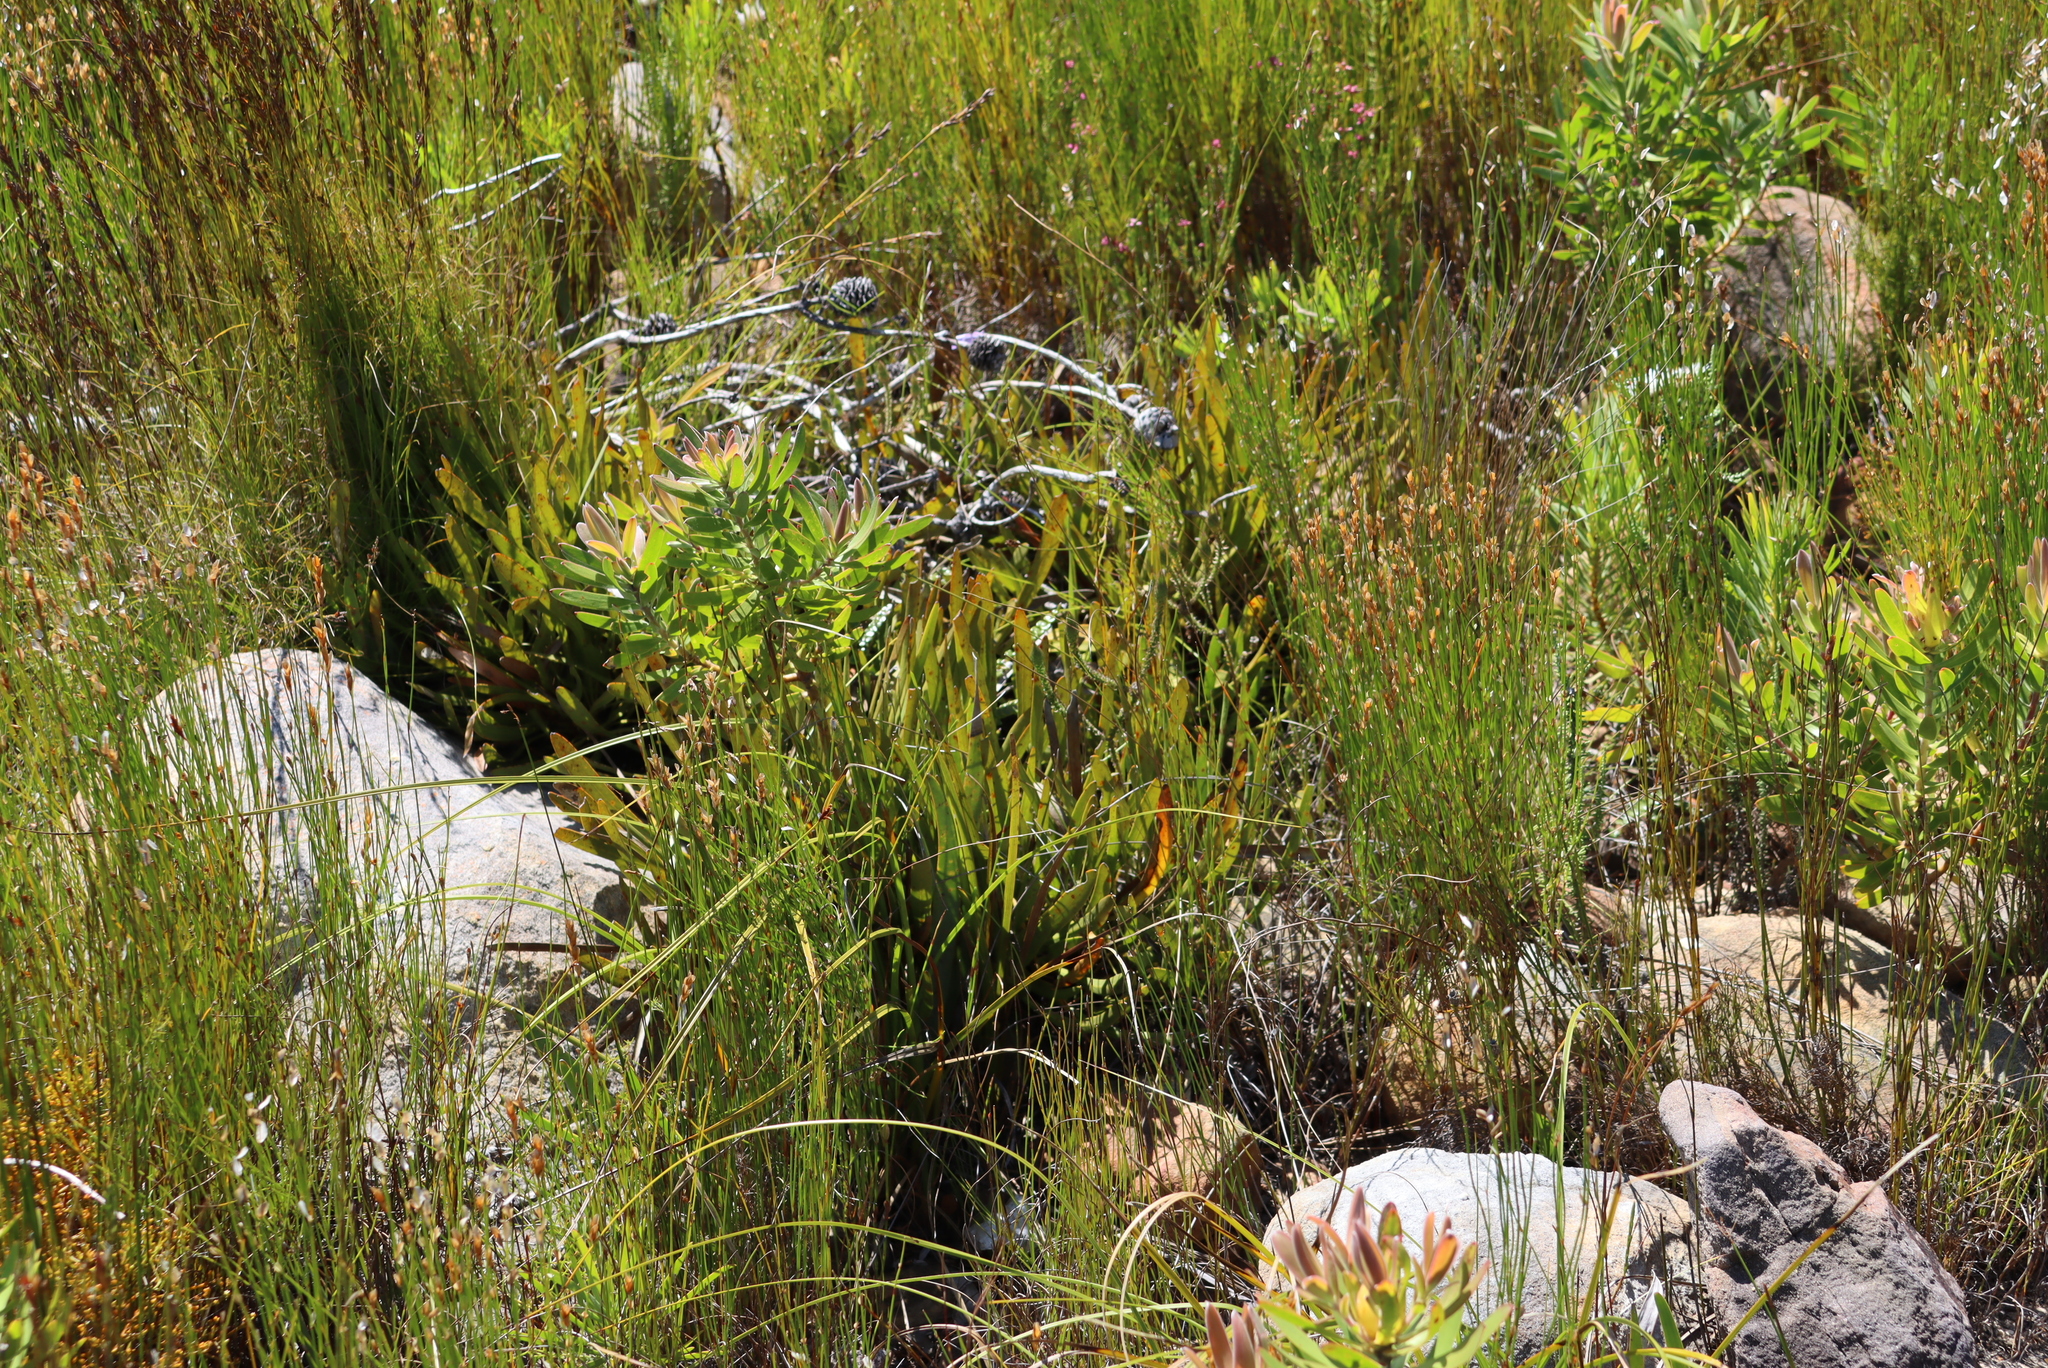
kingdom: Plantae
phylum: Tracheophyta
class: Magnoliopsida
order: Proteales
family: Proteaceae
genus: Protea
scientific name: Protea scabra
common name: Sandpaper-leaf sugarbush
